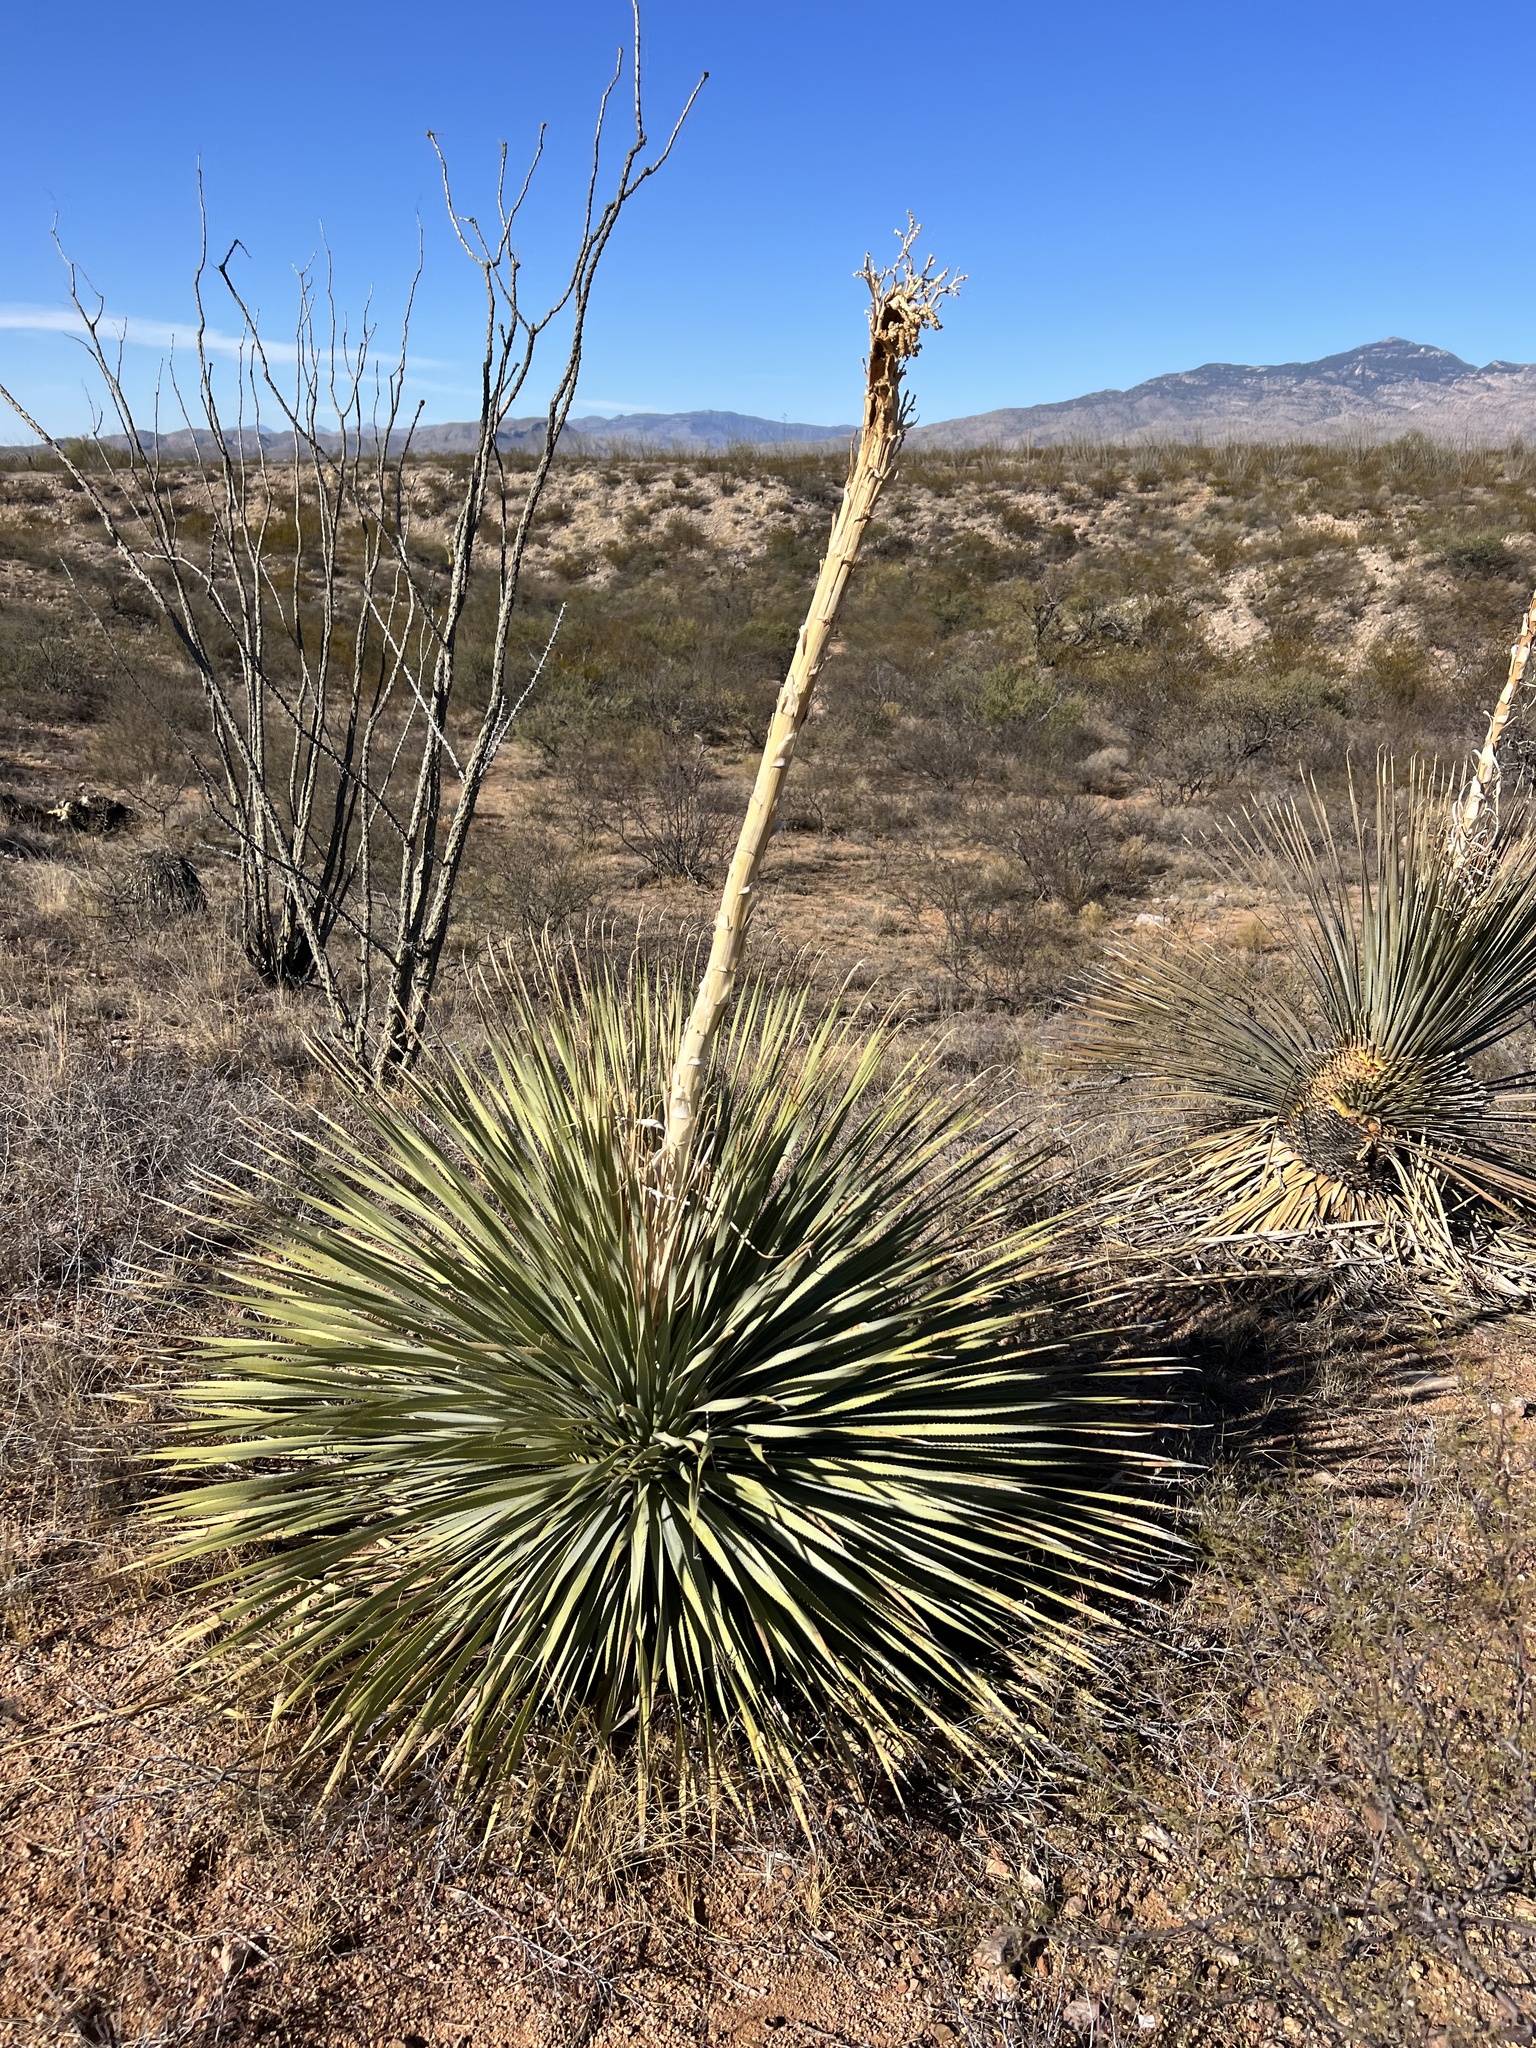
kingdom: Plantae
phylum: Tracheophyta
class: Liliopsida
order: Asparagales
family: Asparagaceae
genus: Dasylirion
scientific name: Dasylirion wheeleri
